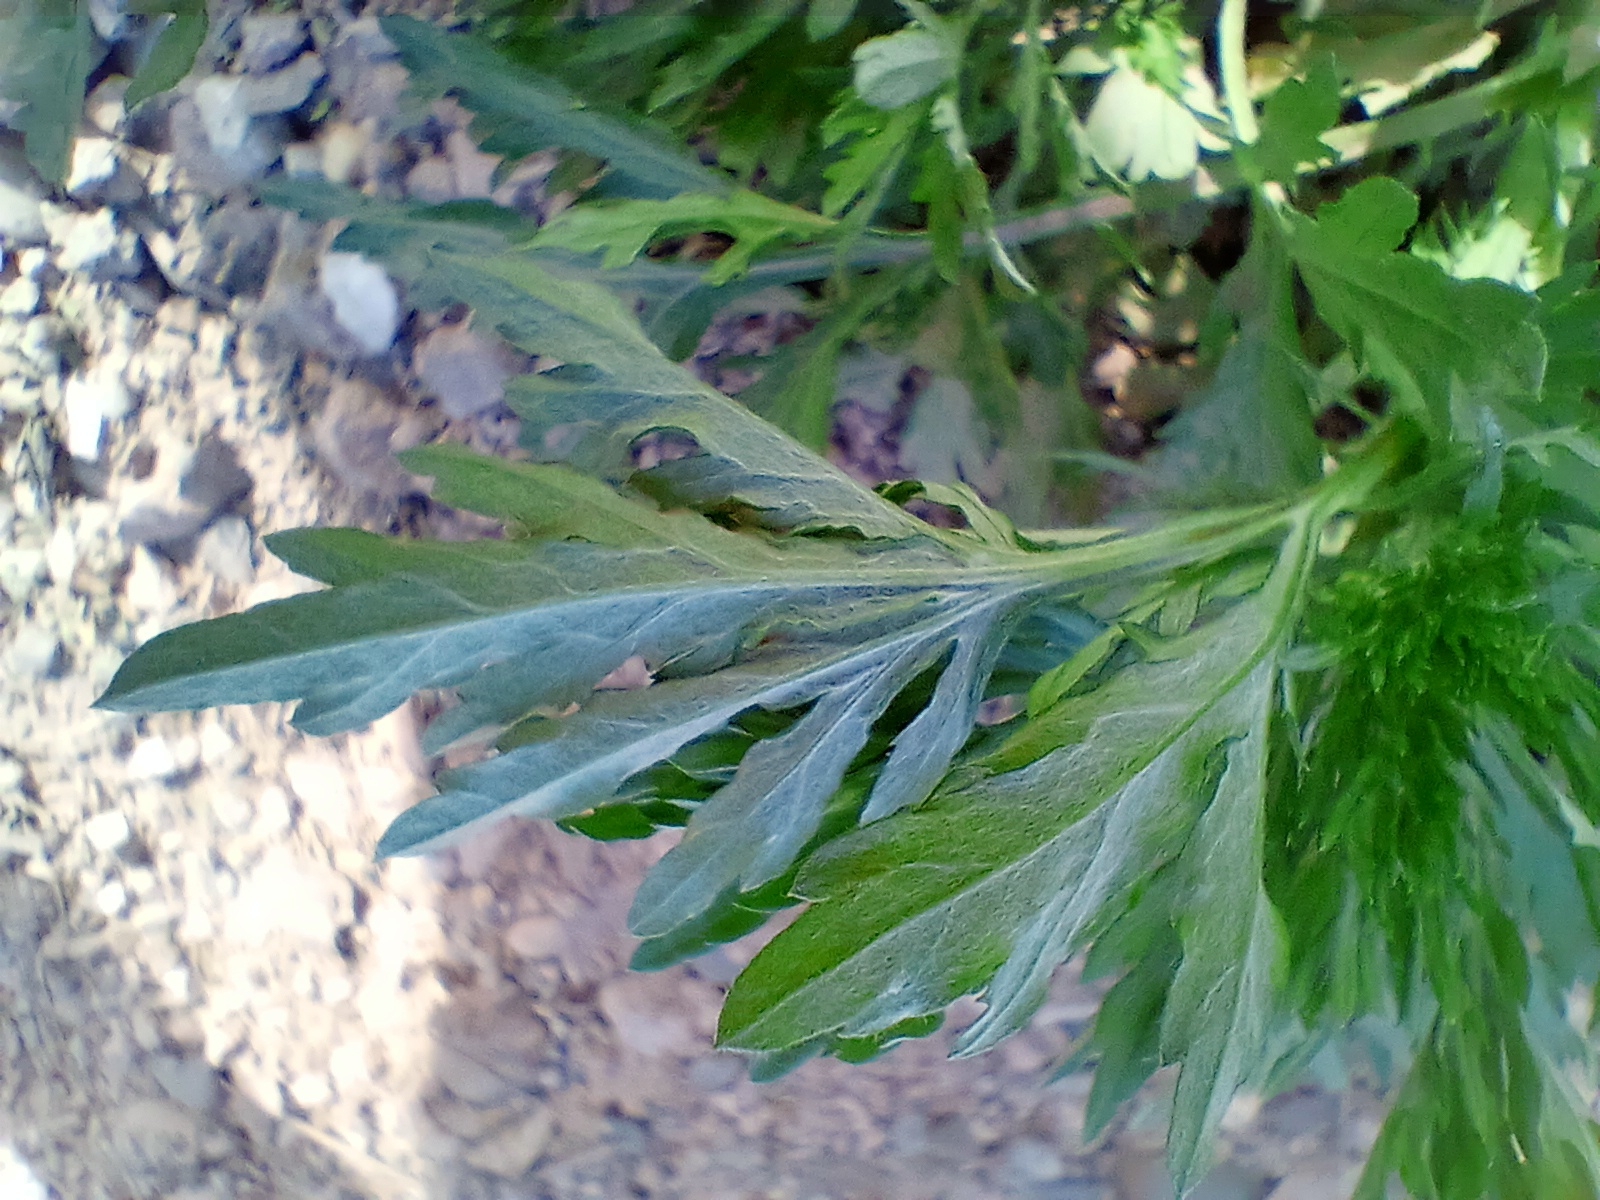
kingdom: Plantae
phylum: Tracheophyta
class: Magnoliopsida
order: Asterales
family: Asteraceae
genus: Artemisia
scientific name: Artemisia sieversiana
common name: Sieversian wormwood
